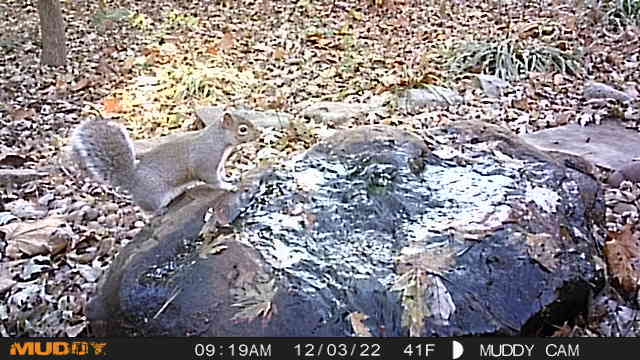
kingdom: Animalia
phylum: Chordata
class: Mammalia
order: Rodentia
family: Sciuridae
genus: Sciurus
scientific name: Sciurus carolinensis
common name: Eastern gray squirrel
